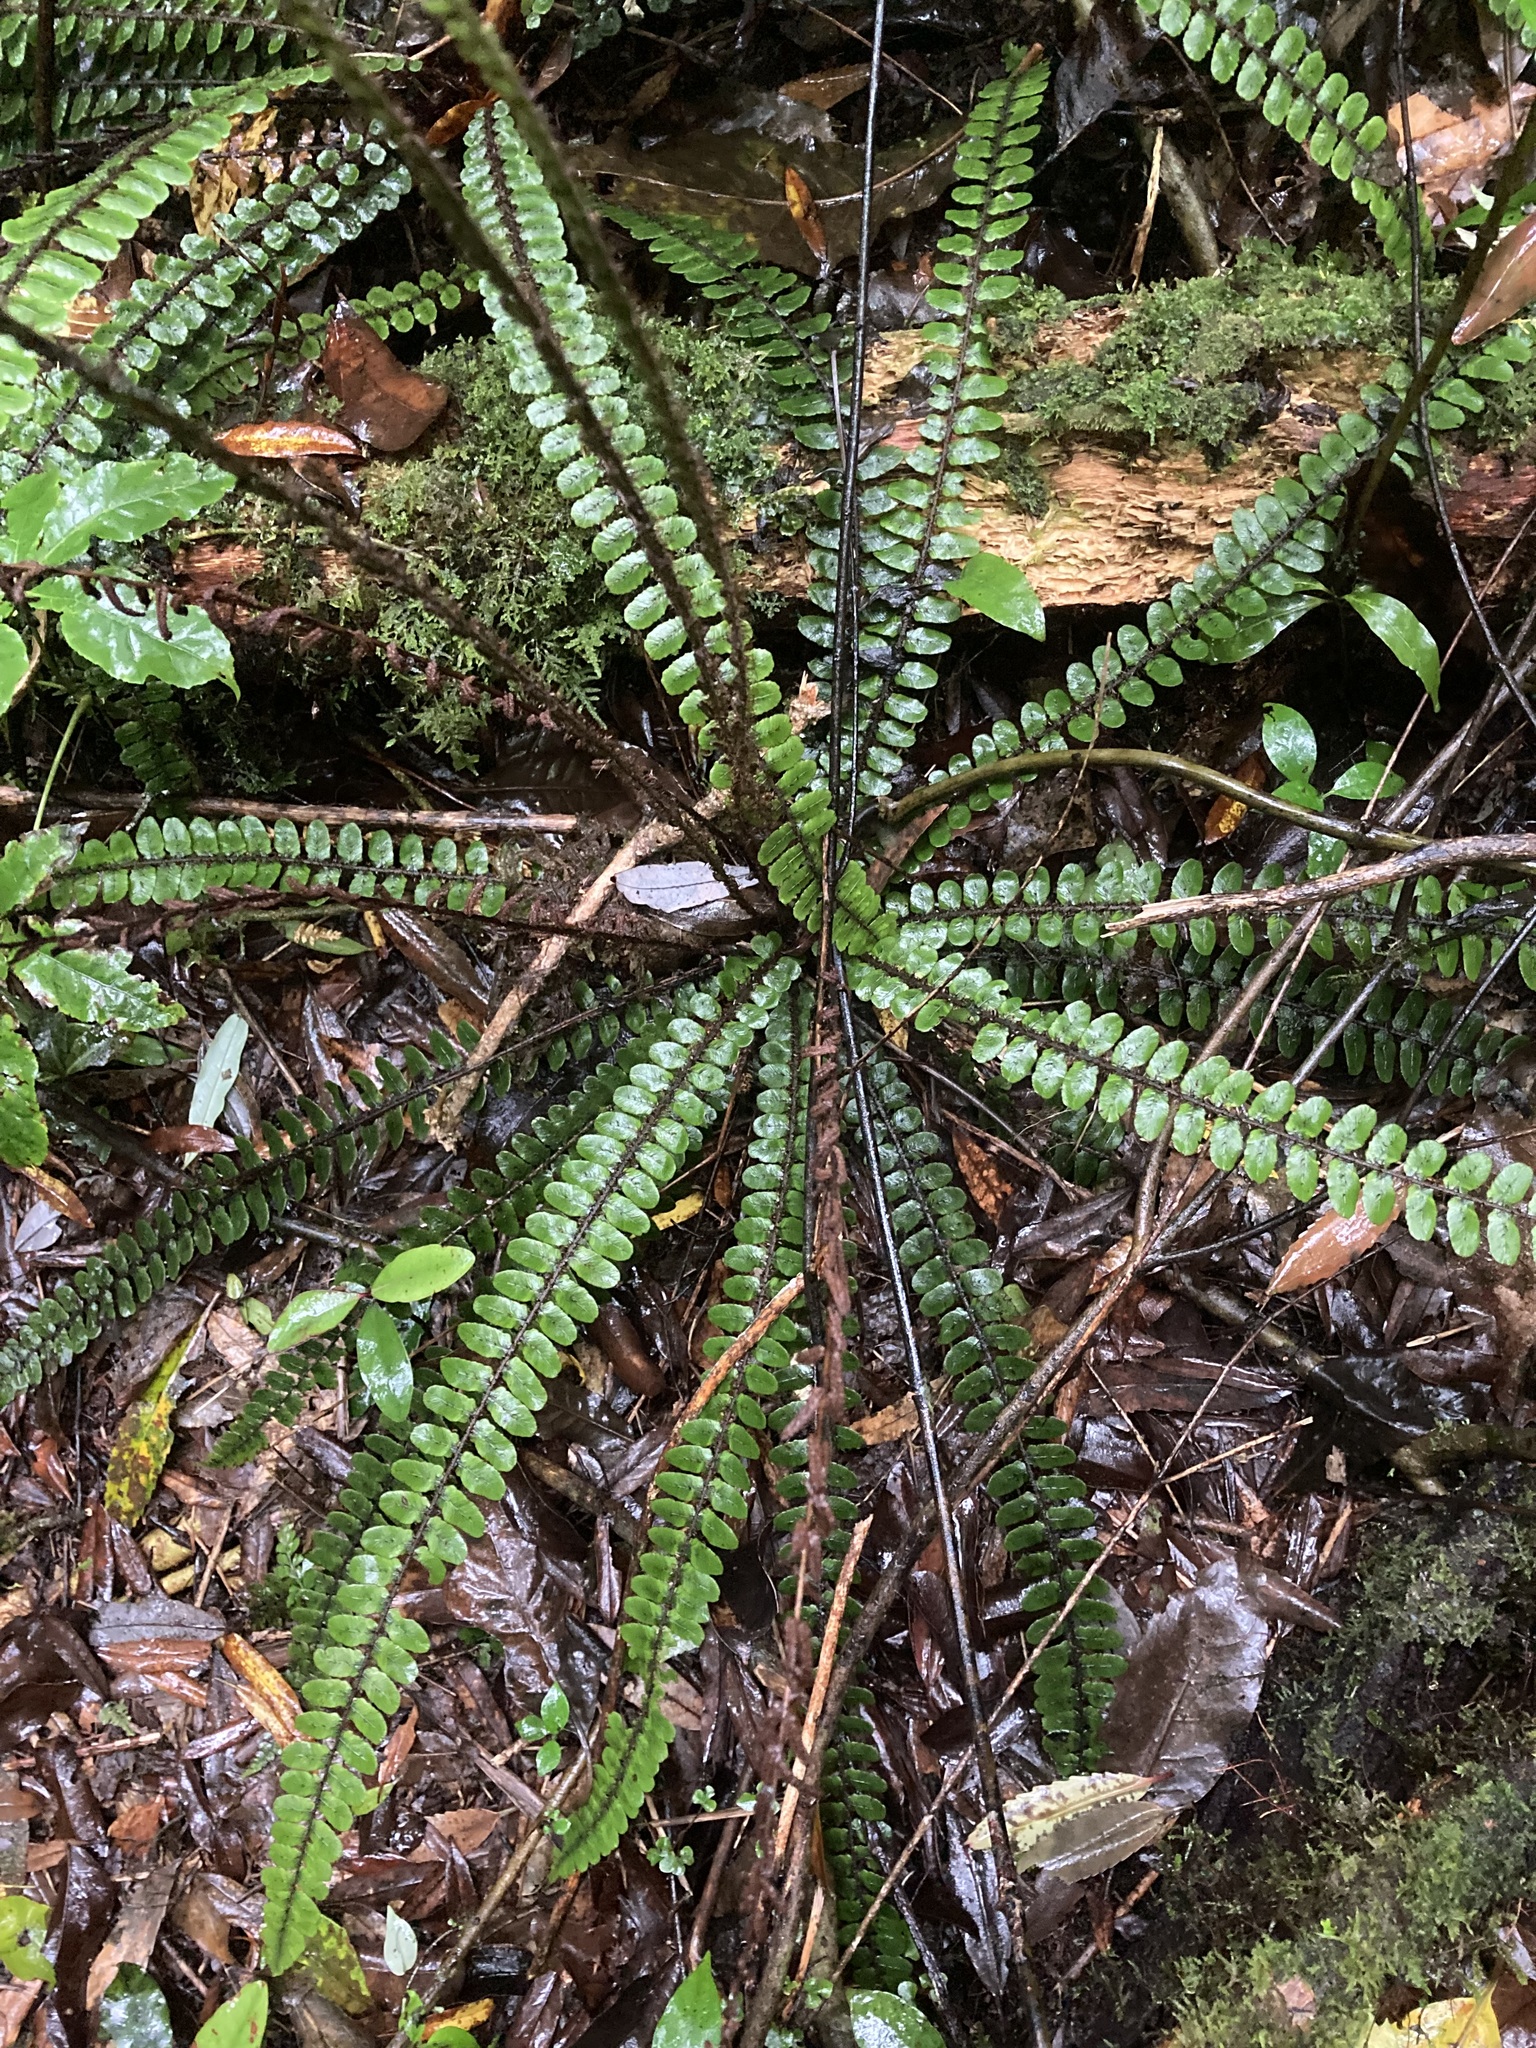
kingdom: Plantae
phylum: Tracheophyta
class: Polypodiopsida
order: Polypodiales
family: Blechnaceae
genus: Cranfillia
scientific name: Cranfillia fluviatilis
